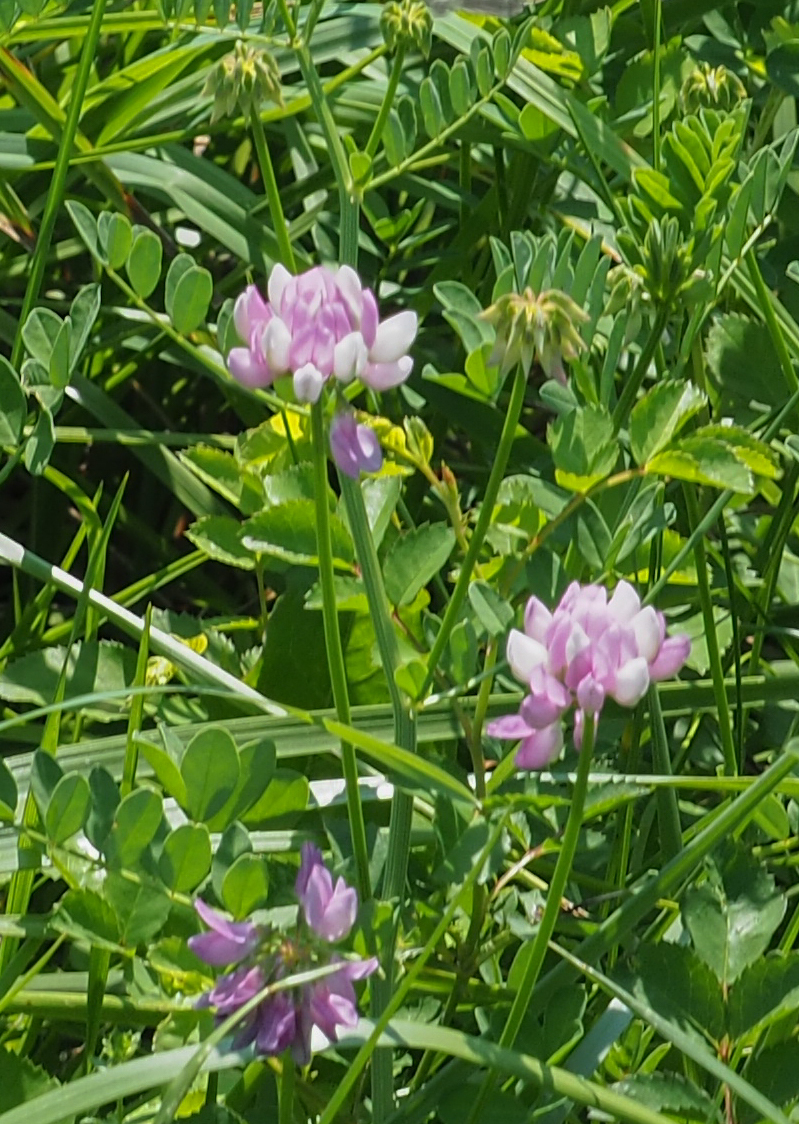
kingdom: Plantae
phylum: Tracheophyta
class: Magnoliopsida
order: Fabales
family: Fabaceae
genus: Coronilla
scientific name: Coronilla varia
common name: Crownvetch
